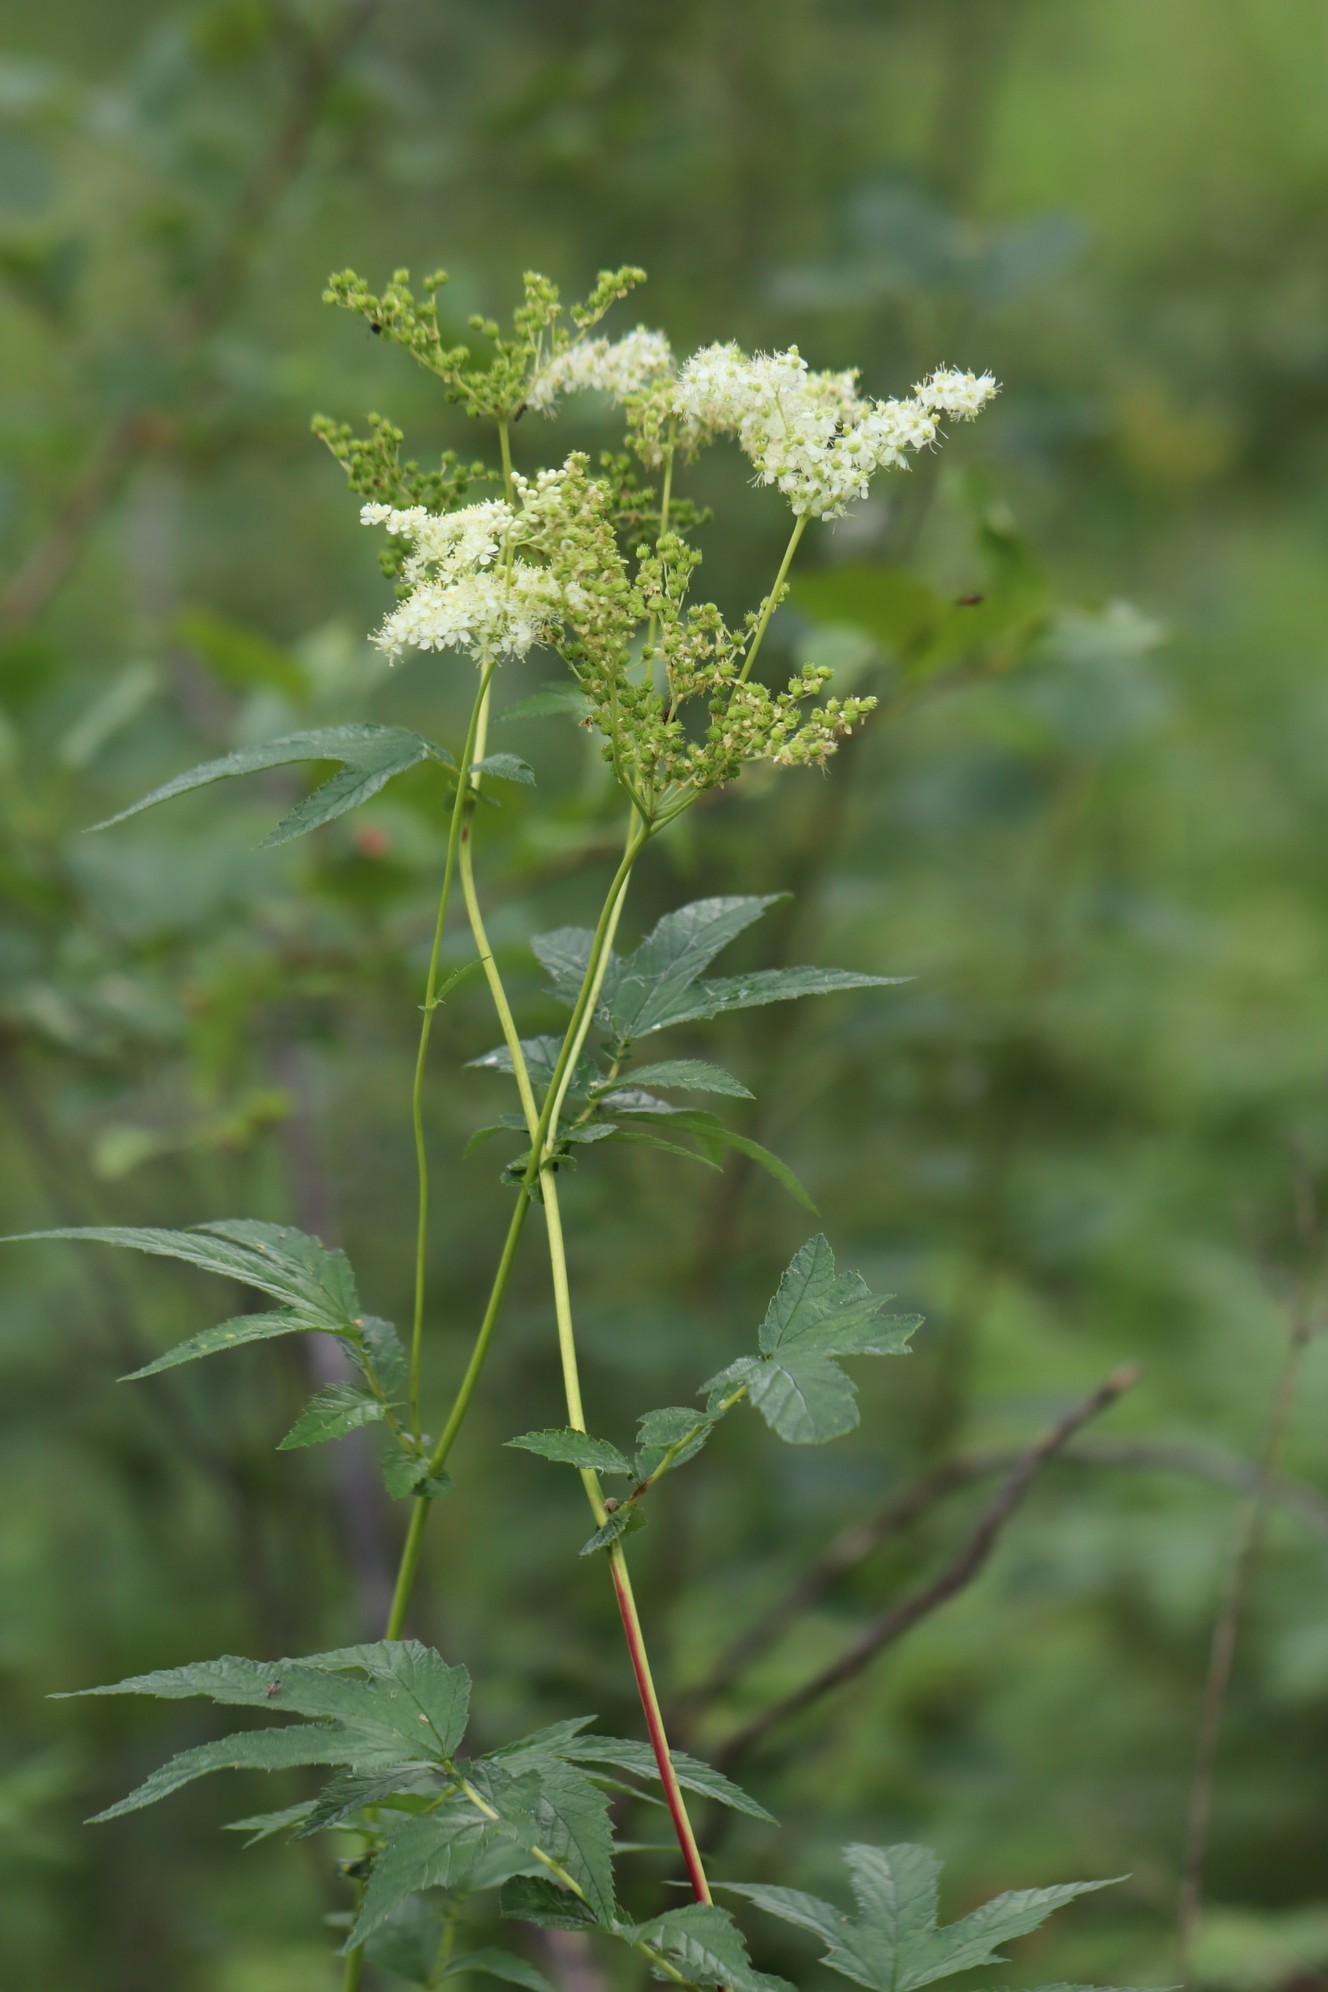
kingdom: Plantae
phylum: Tracheophyta
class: Magnoliopsida
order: Rosales
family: Rosaceae
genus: Filipendula
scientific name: Filipendula ulmaria
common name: Meadowsweet
